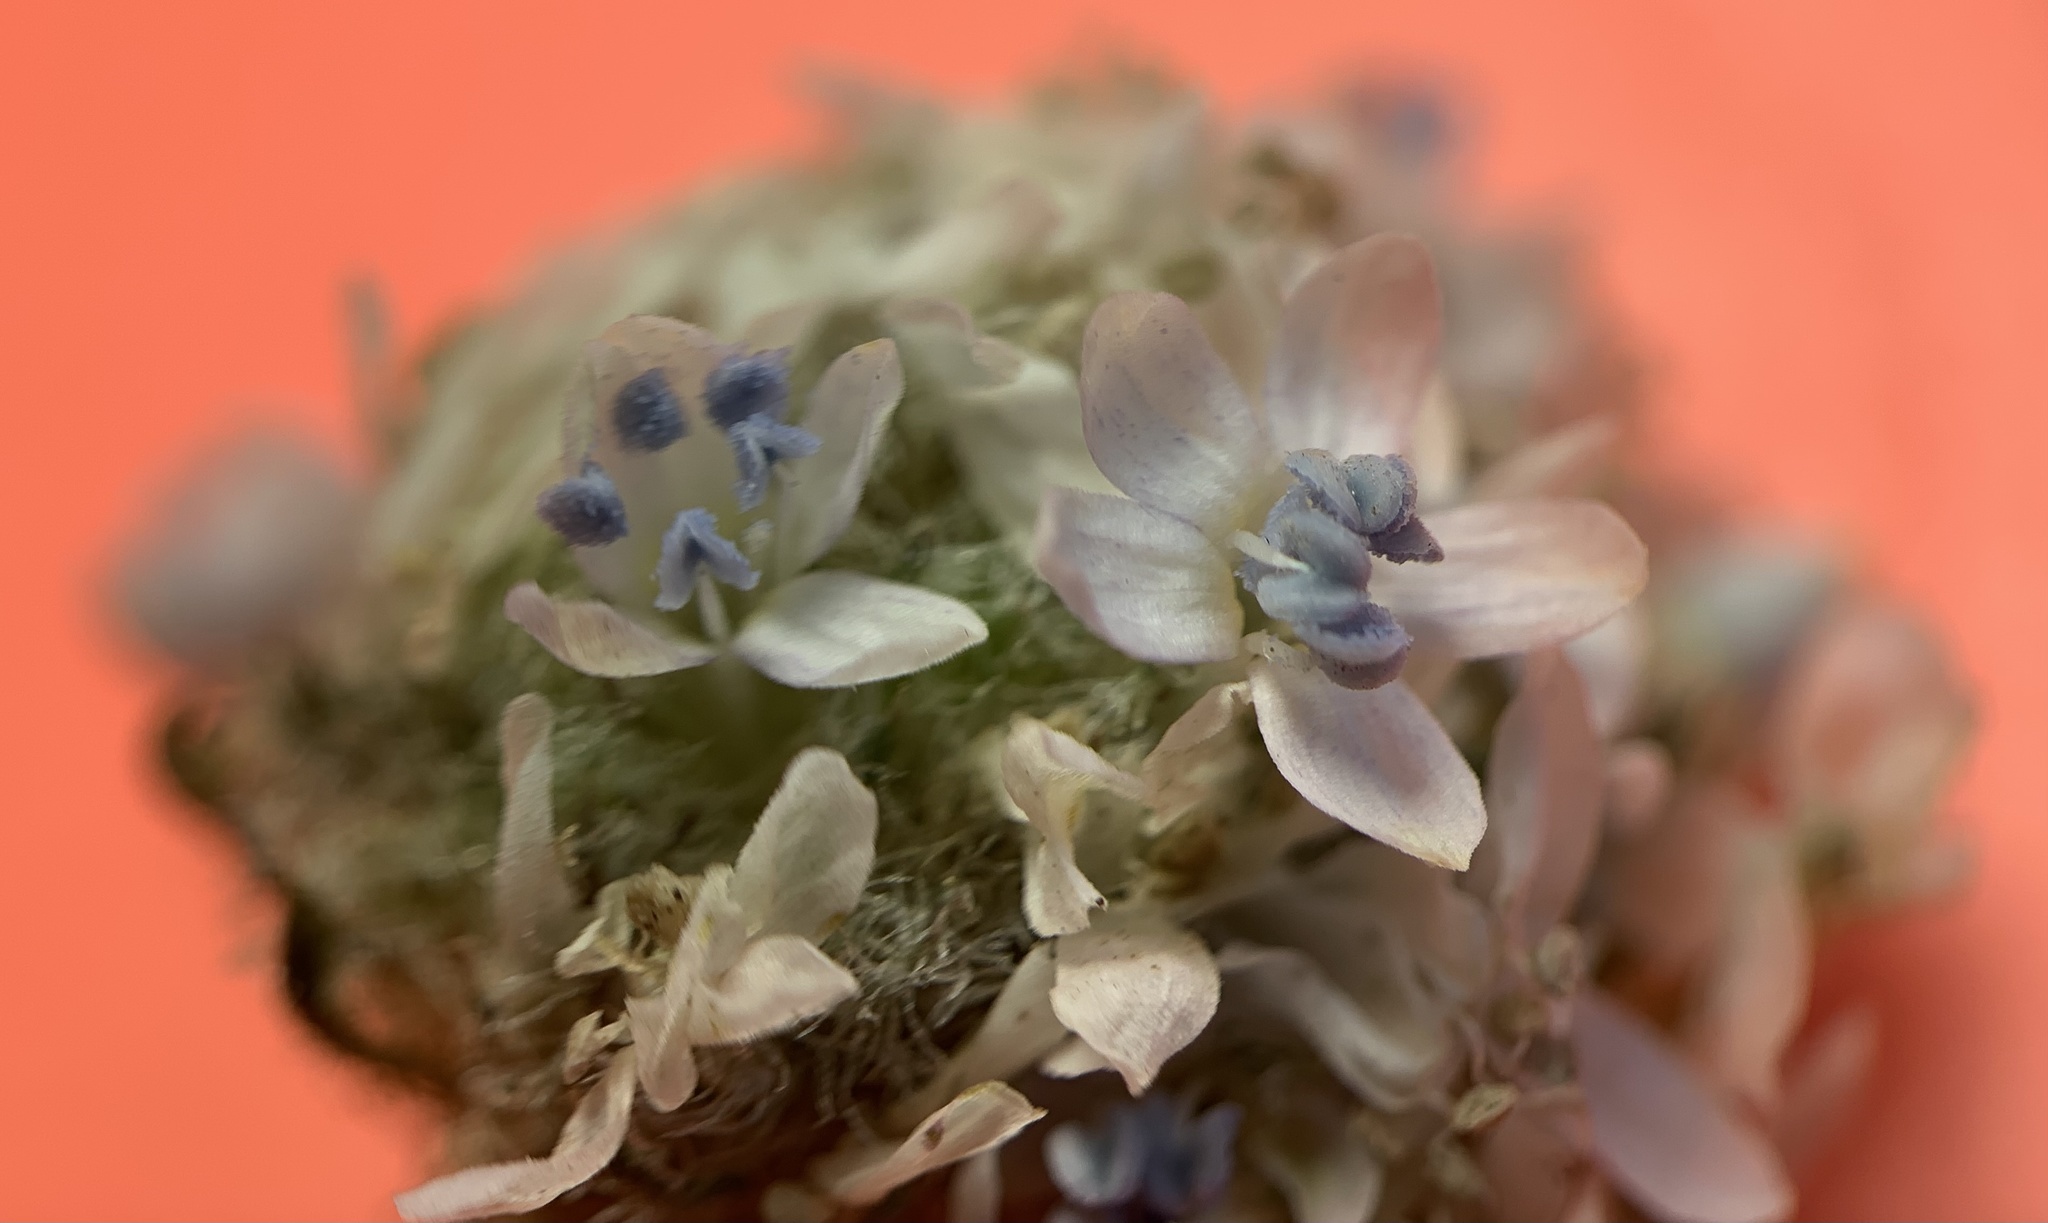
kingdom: Plantae
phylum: Tracheophyta
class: Magnoliopsida
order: Ericales
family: Polemoniaceae
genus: Ipomopsis
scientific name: Ipomopsis congesta
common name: Ball-head gilia
